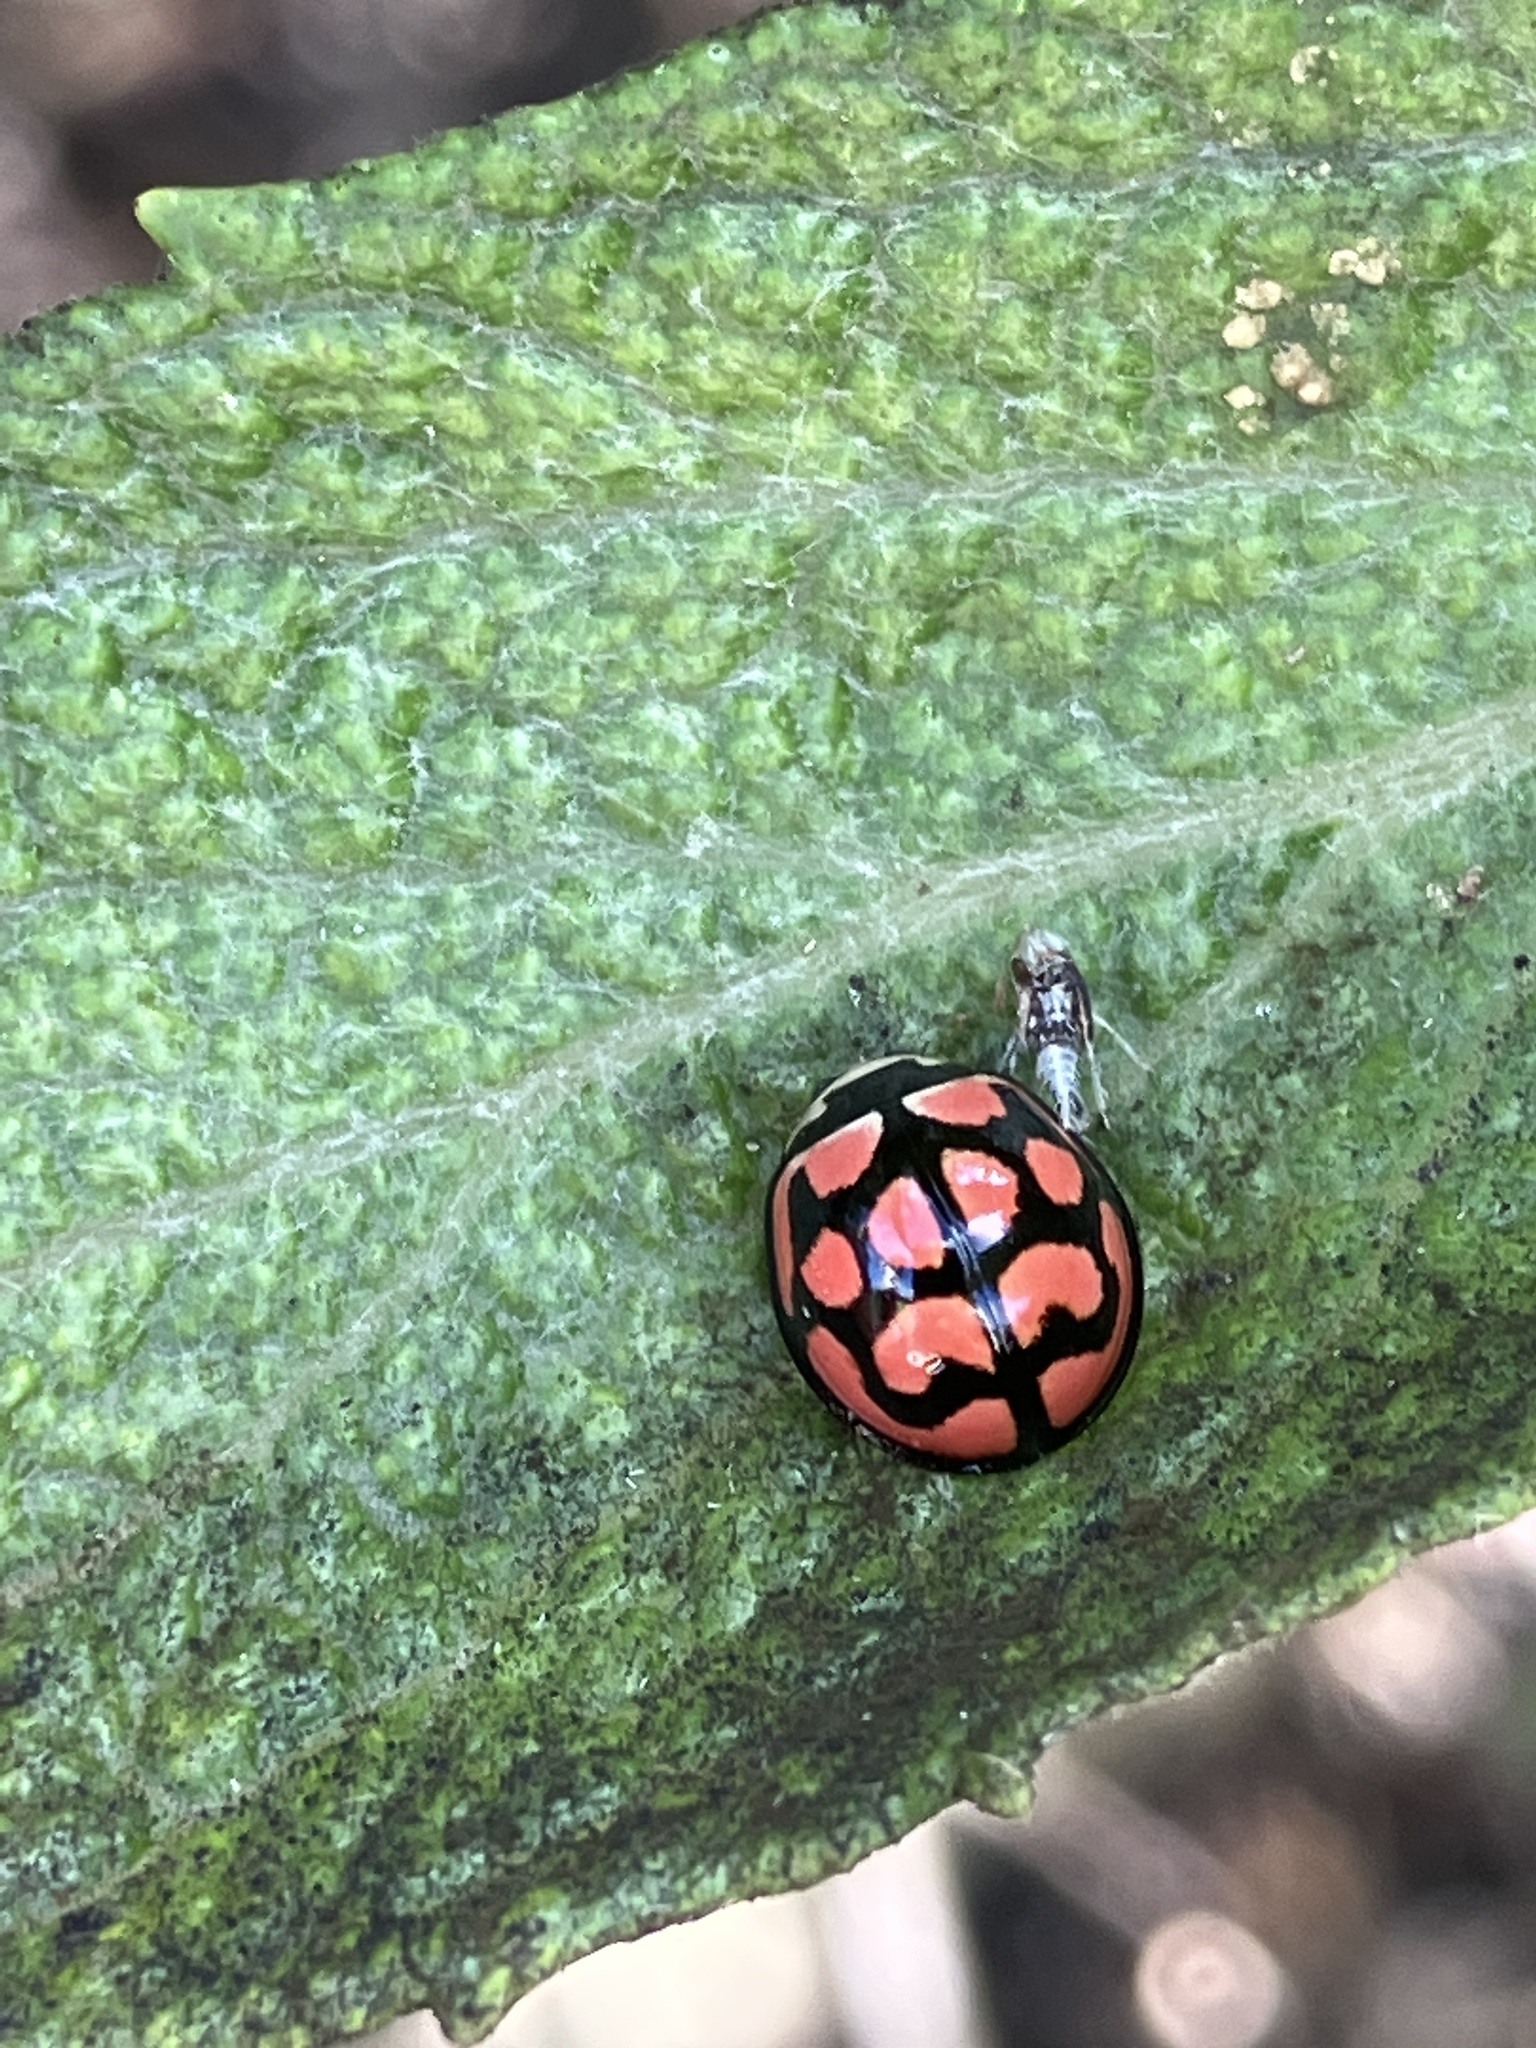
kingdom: Animalia
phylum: Arthropoda
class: Insecta
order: Coleoptera
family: Coccinellidae
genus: Cheilomenes
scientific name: Cheilomenes lunata
